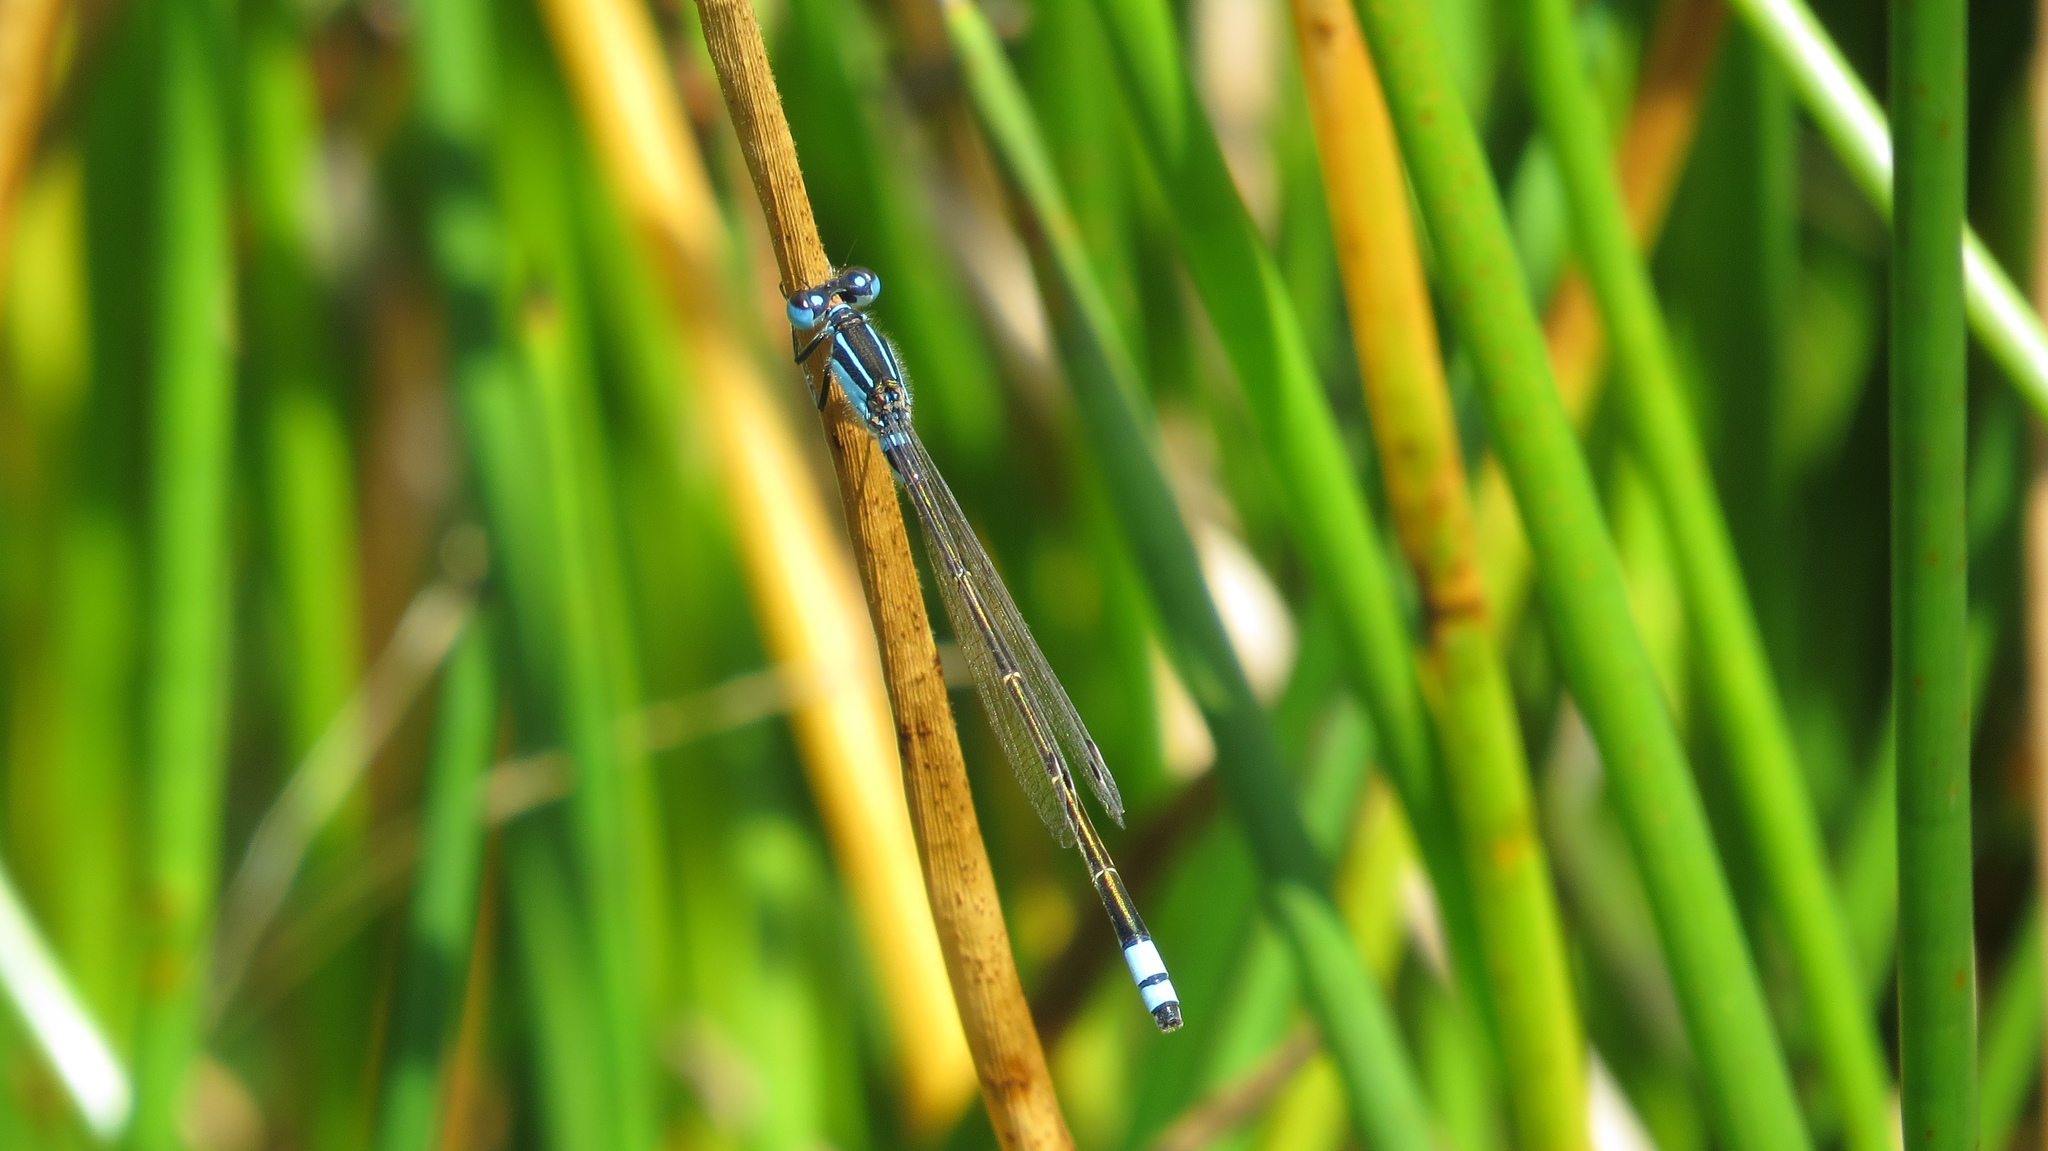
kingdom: Animalia
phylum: Arthropoda
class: Insecta
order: Odonata
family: Coenagrionidae
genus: Ischnura
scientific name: Ischnura heterosticta
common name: Common bluetail
